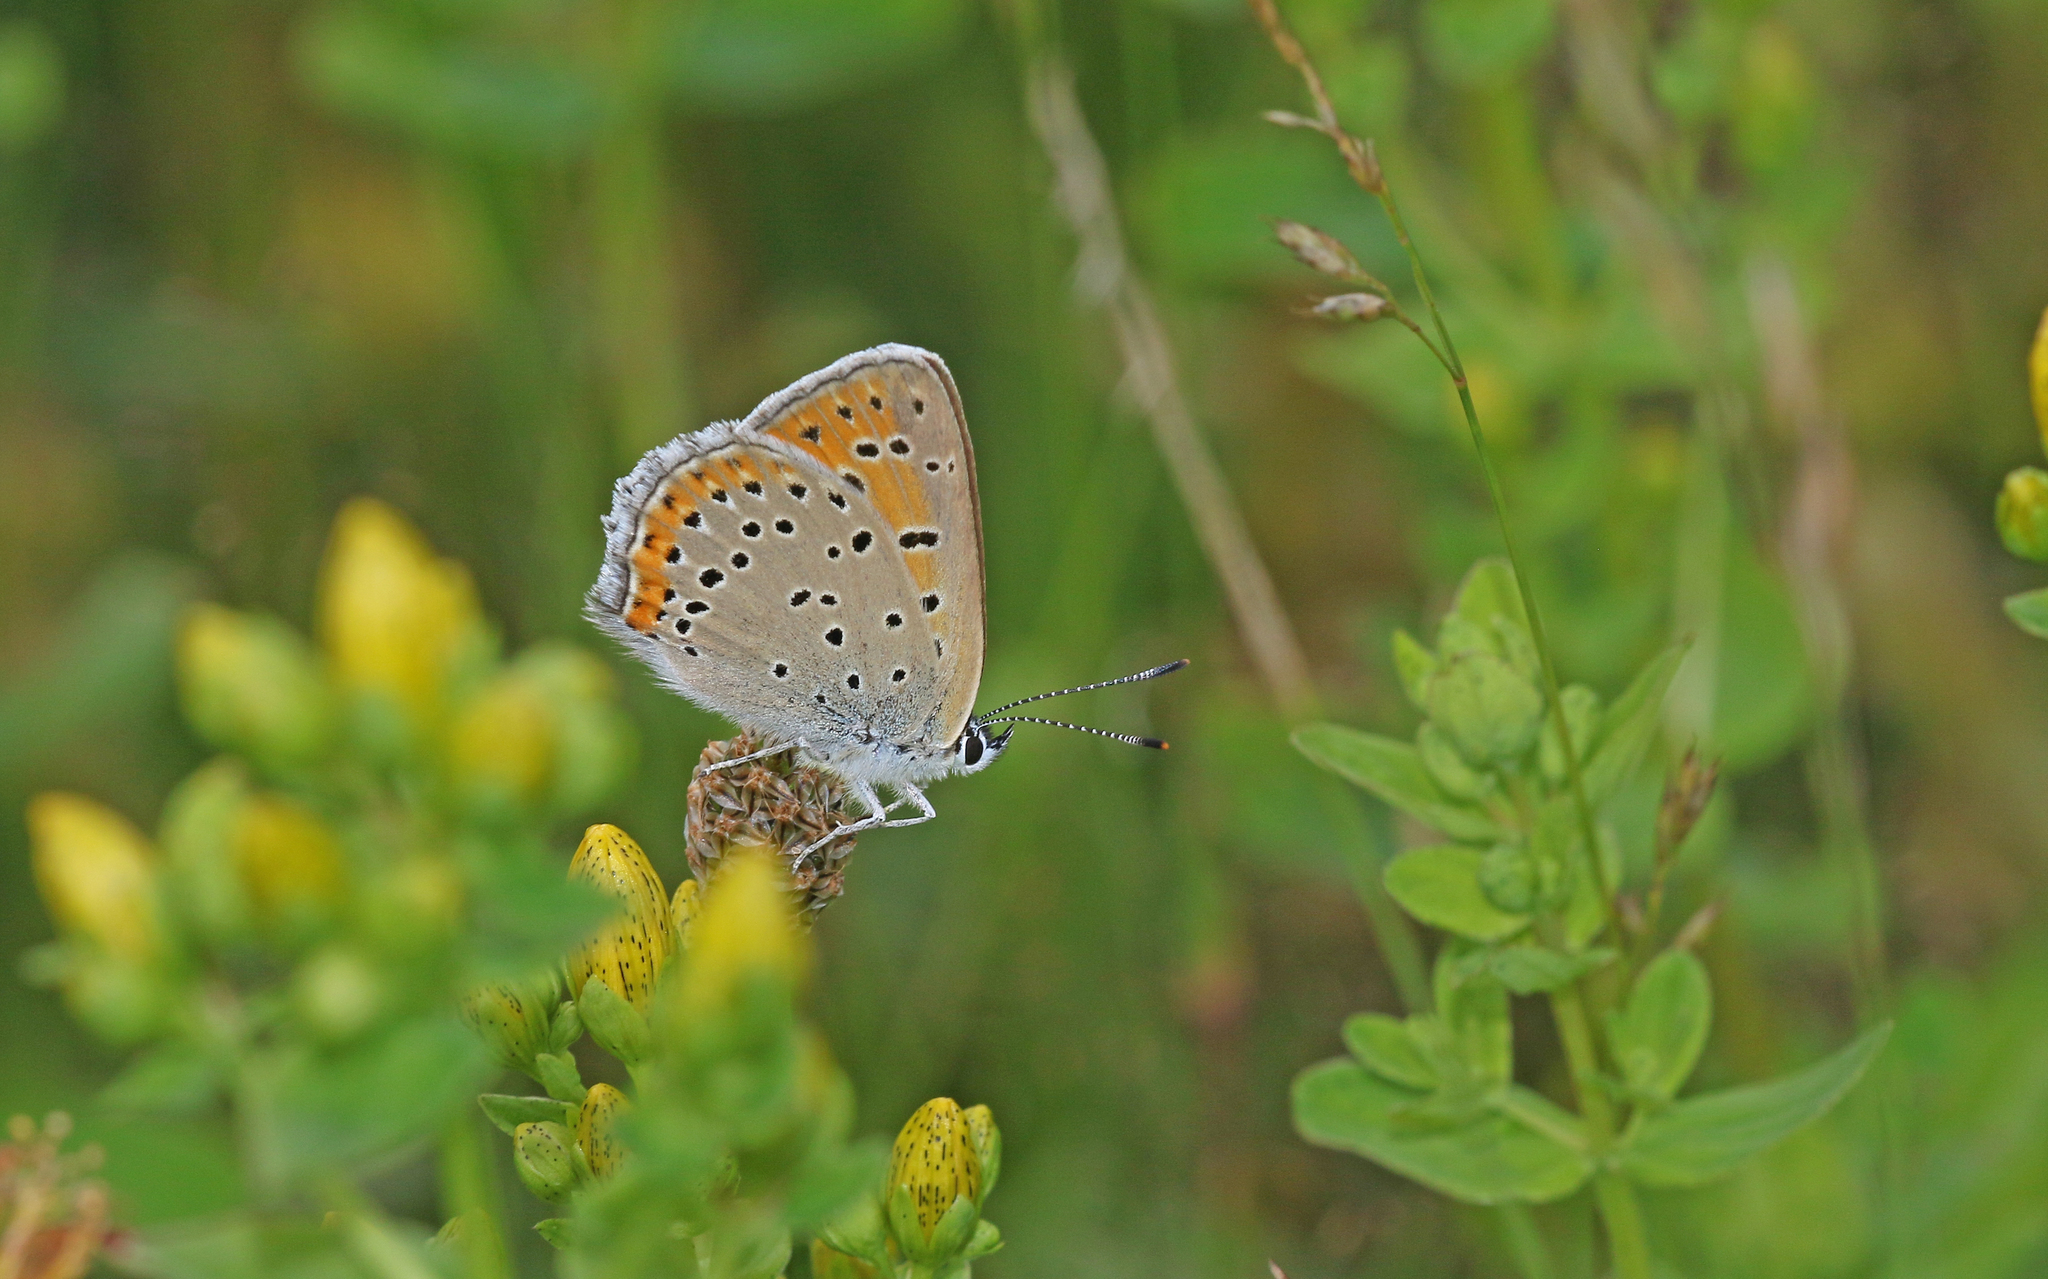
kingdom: Animalia
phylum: Arthropoda
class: Insecta
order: Lepidoptera
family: Lycaenidae
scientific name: Lycaenidae
